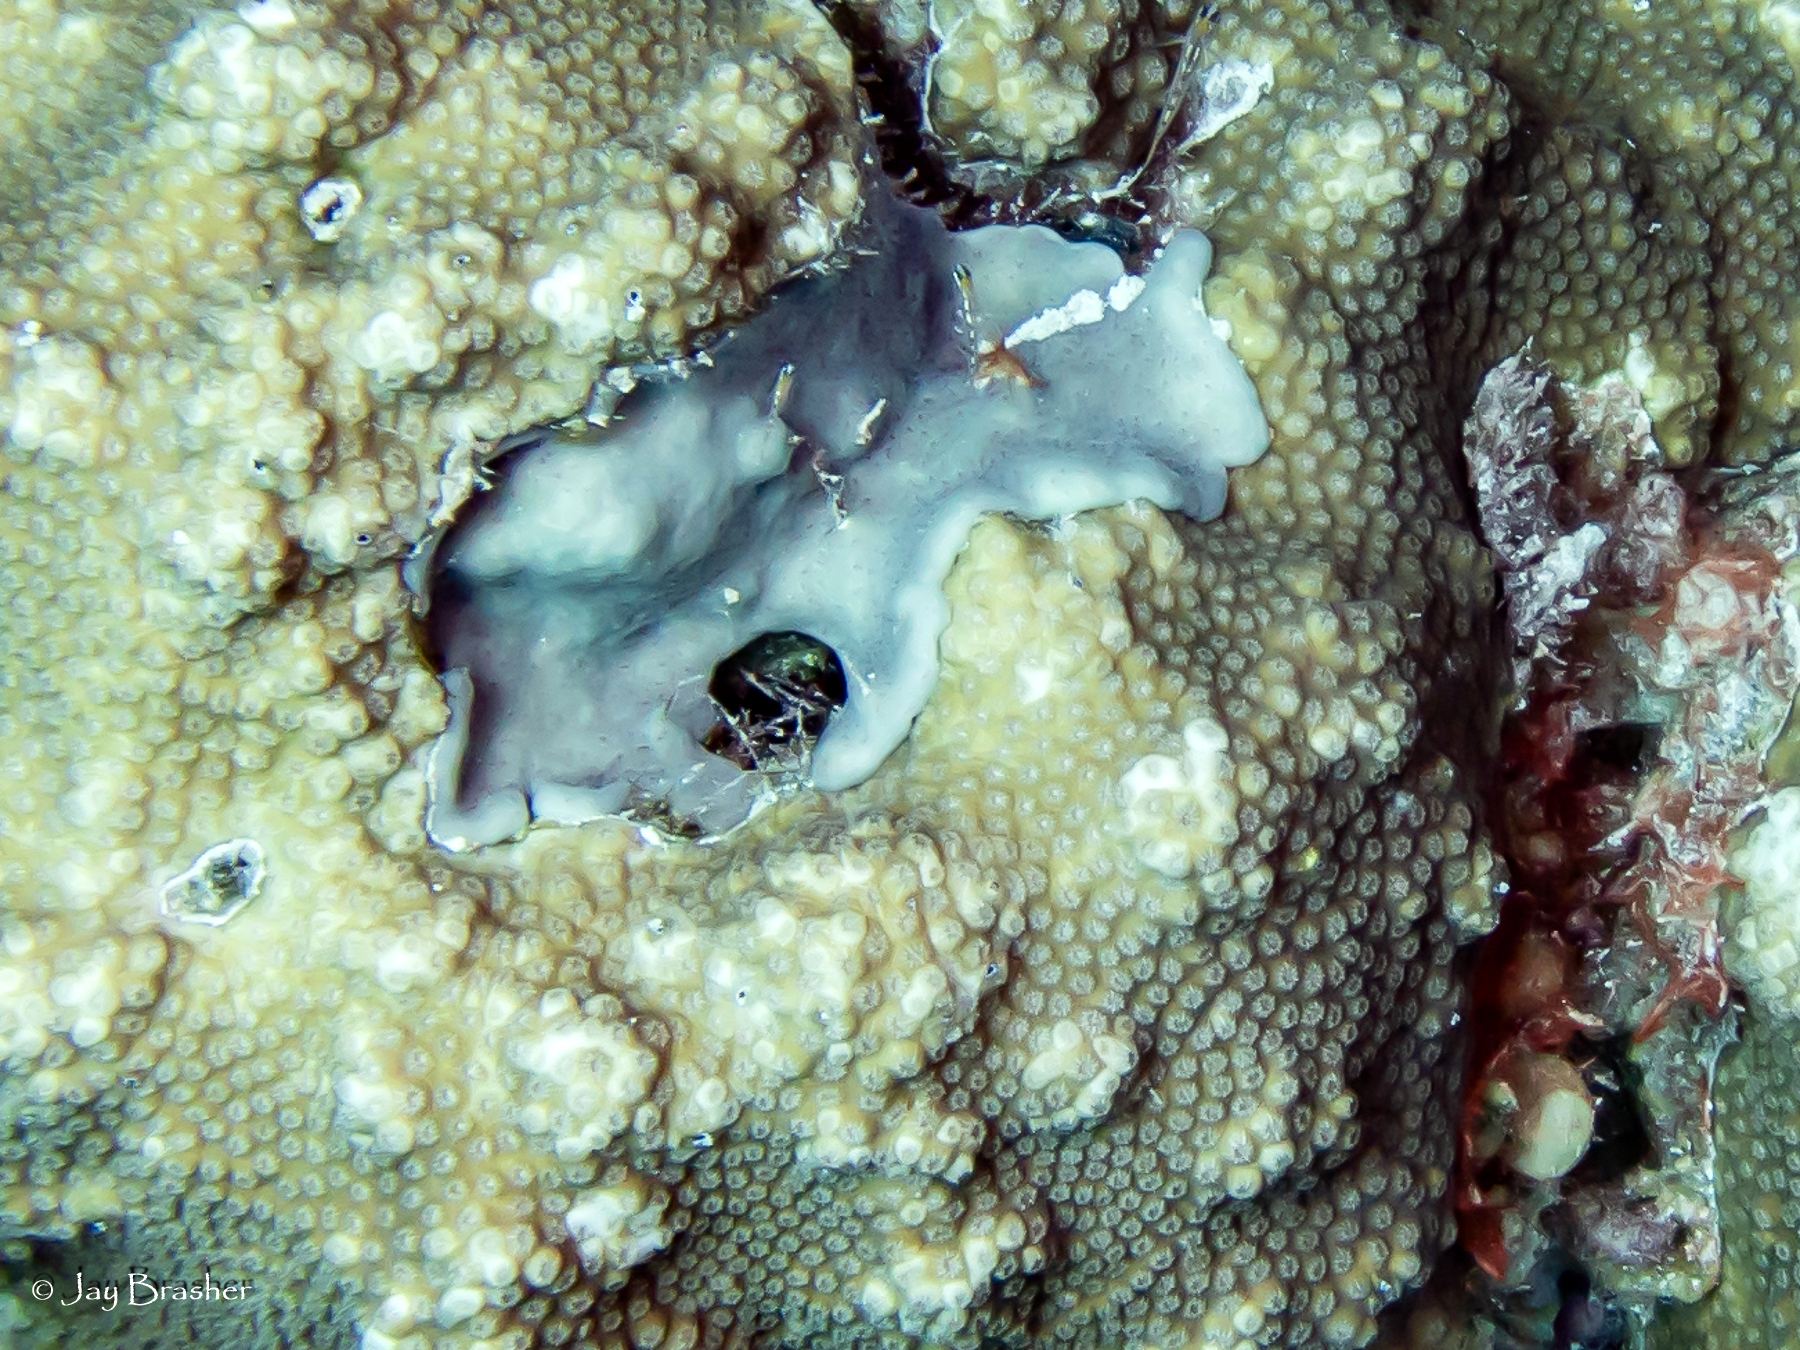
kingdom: Animalia
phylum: Chordata
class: Ascidiacea
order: Aplousobranchia
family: Didemnidae
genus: Trididemnum
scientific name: Trididemnum solidum
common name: Overgrowing mat tunicate
